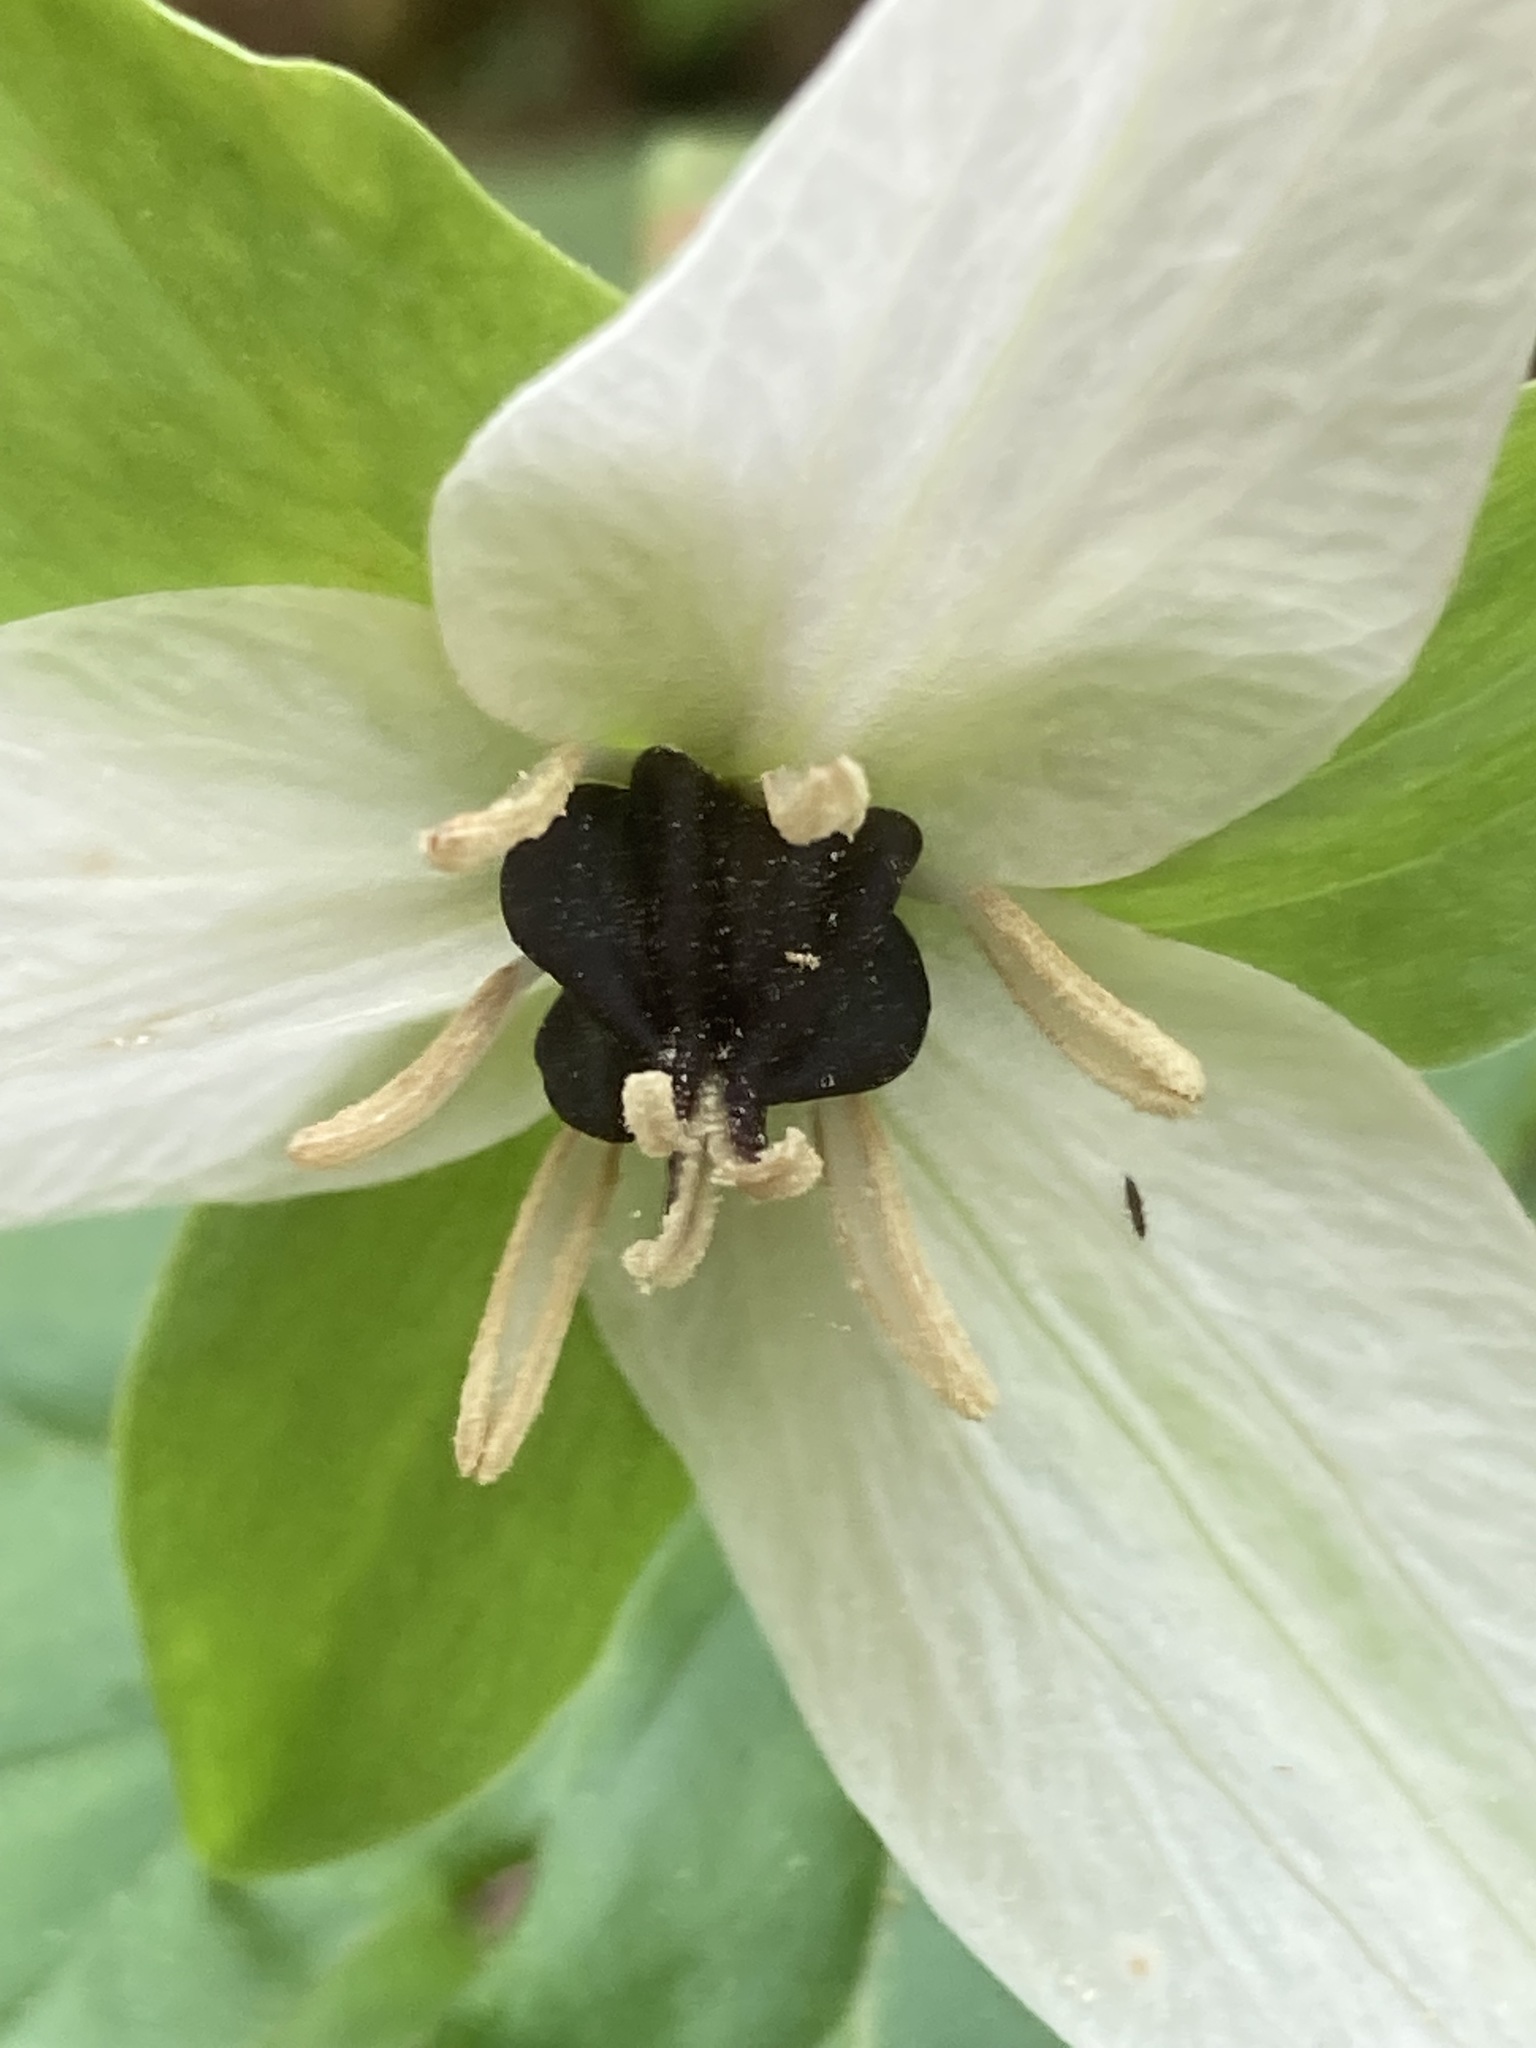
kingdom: Plantae
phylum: Tracheophyta
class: Liliopsida
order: Liliales
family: Melanthiaceae
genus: Trillium
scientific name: Trillium erectum
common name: Purple trillium
